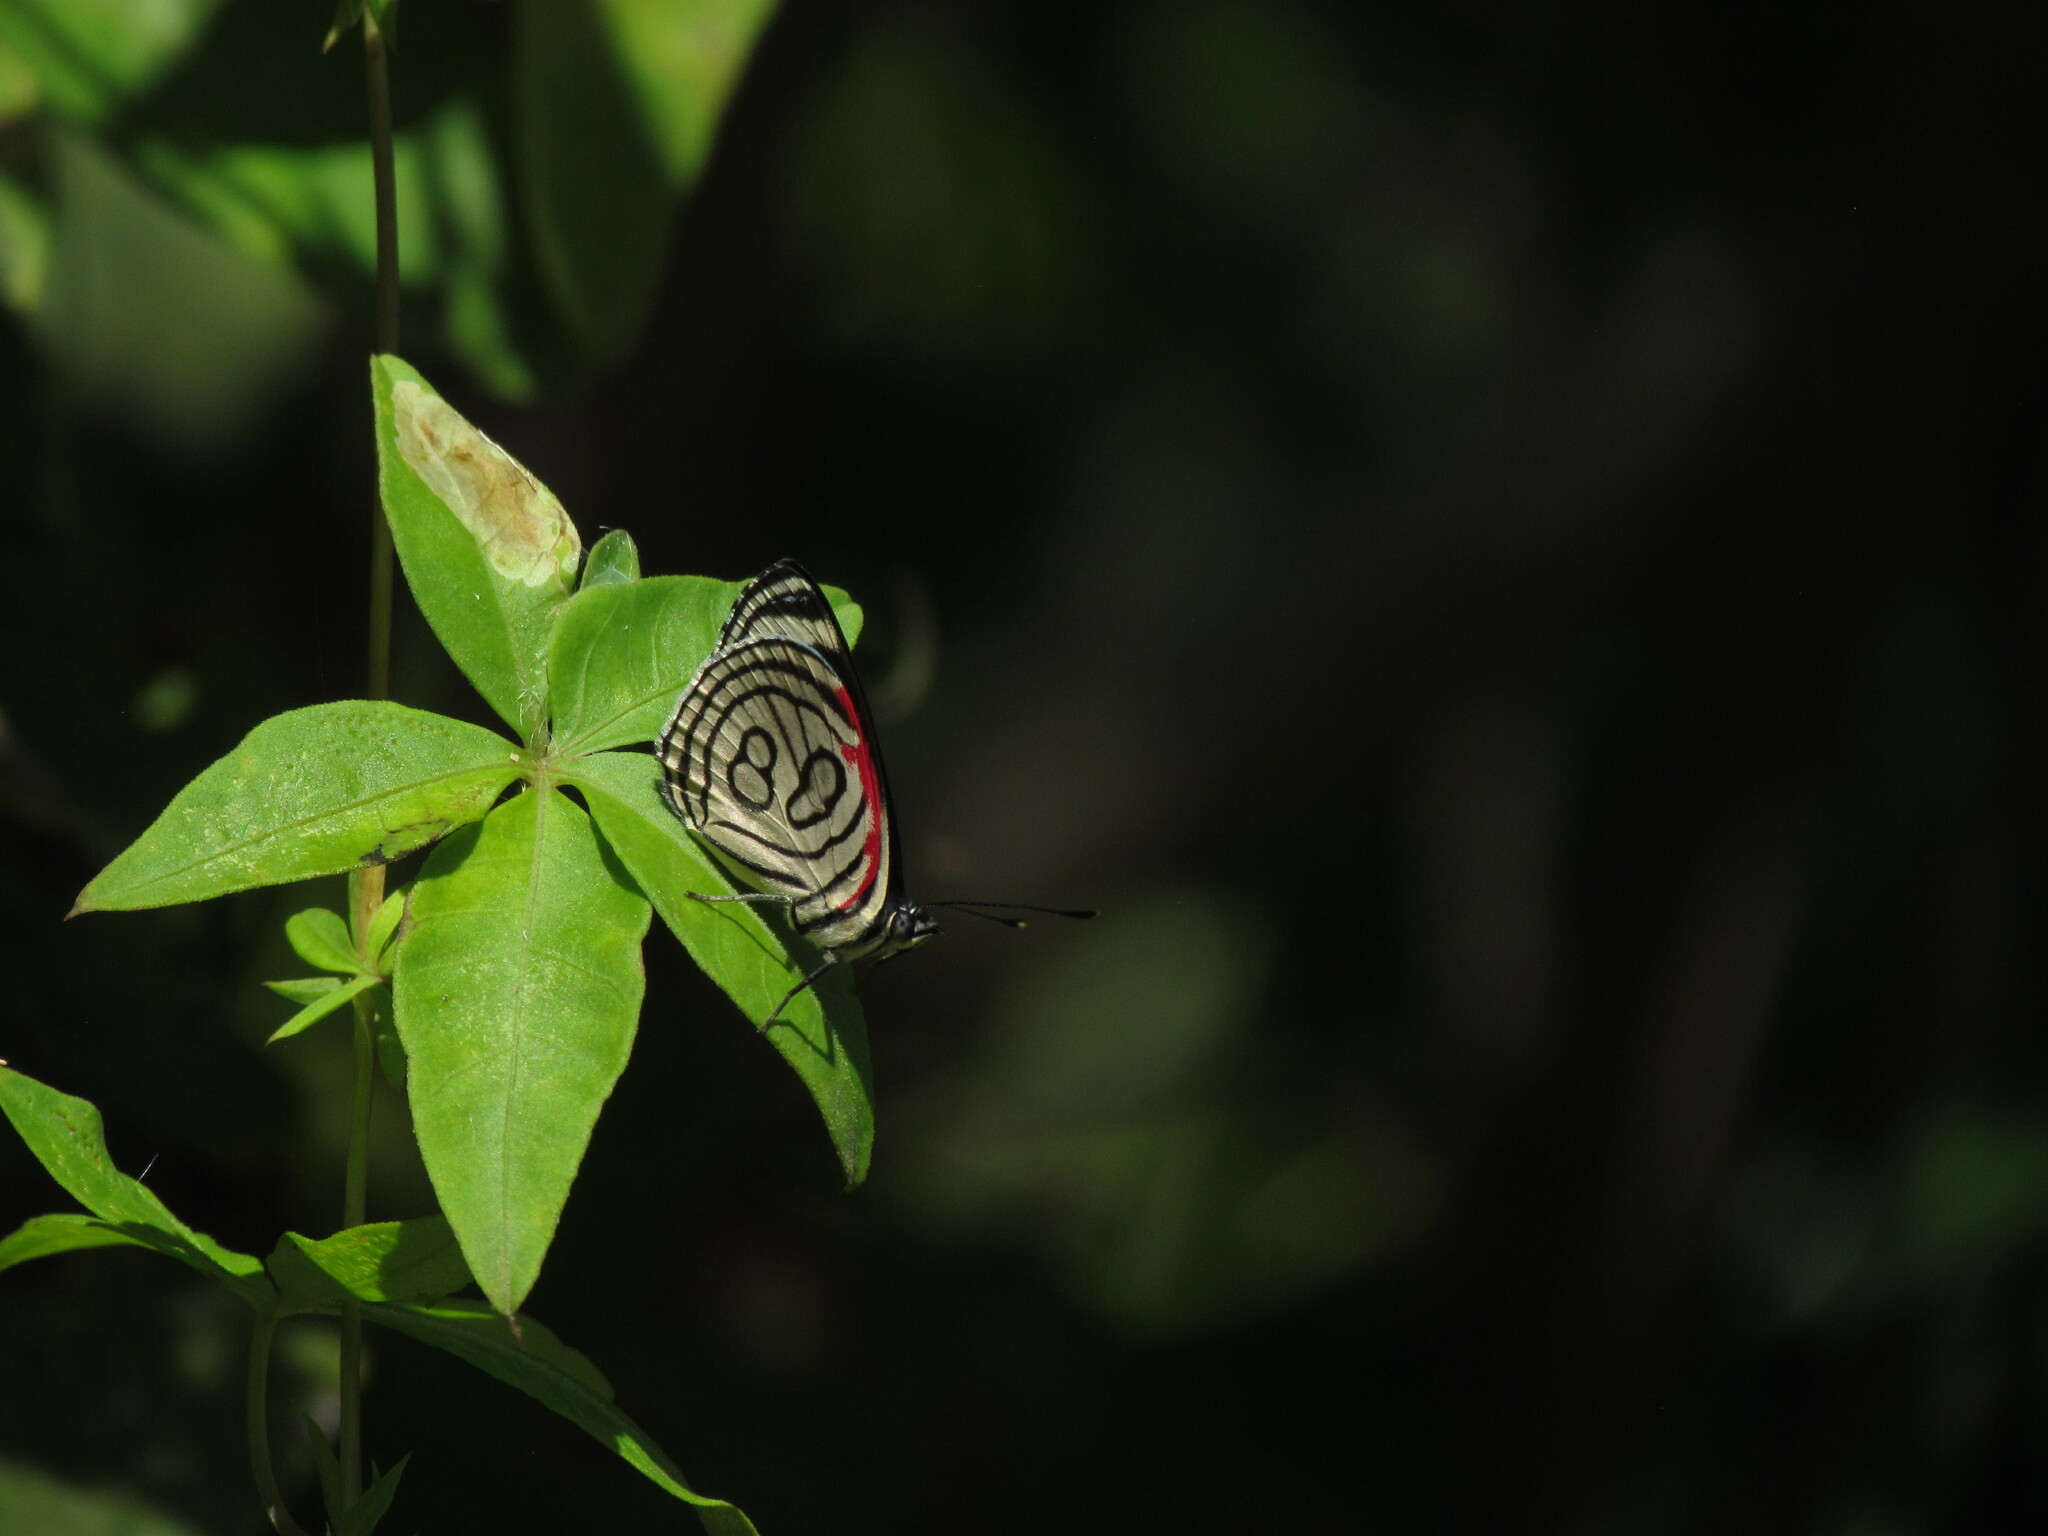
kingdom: Animalia
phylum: Arthropoda
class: Insecta
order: Lepidoptera
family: Nymphalidae
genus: Diaethria
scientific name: Diaethria candrena
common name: Number eighty
